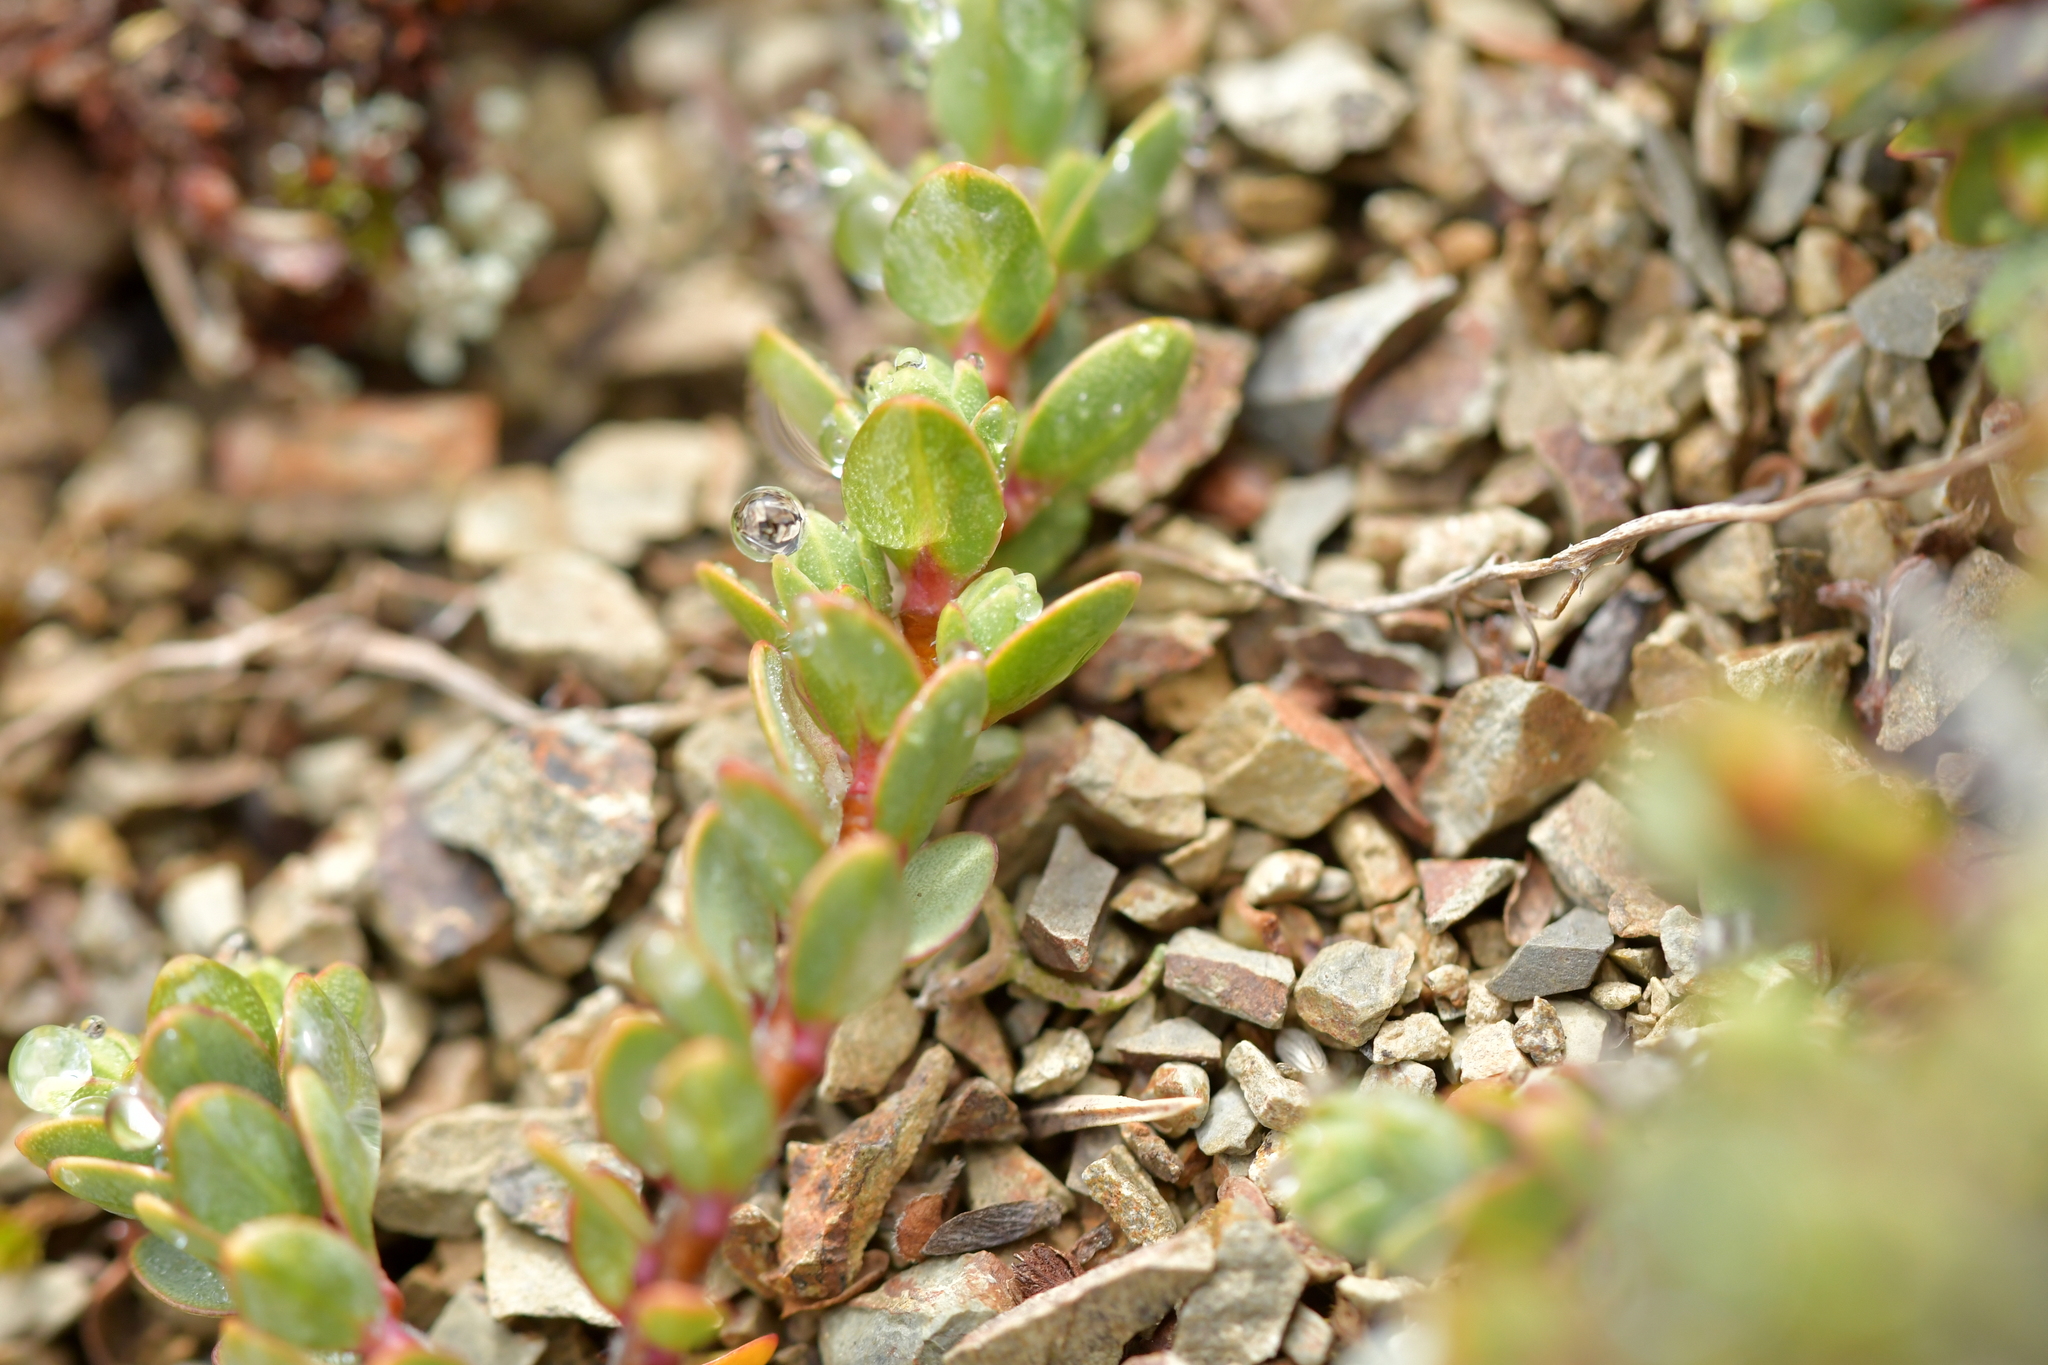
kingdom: Plantae
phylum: Tracheophyta
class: Magnoliopsida
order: Malvales
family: Thymelaeaceae
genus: Pimelea
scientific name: Pimelea microphylla
